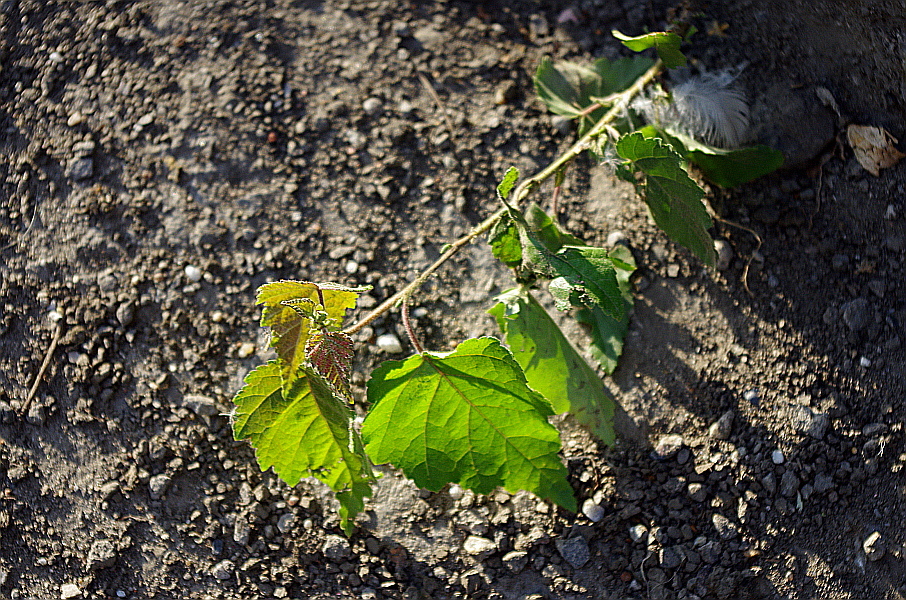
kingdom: Plantae
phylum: Tracheophyta
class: Magnoliopsida
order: Fagales
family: Betulaceae
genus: Betula
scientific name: Betula pubescens
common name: Downy birch
